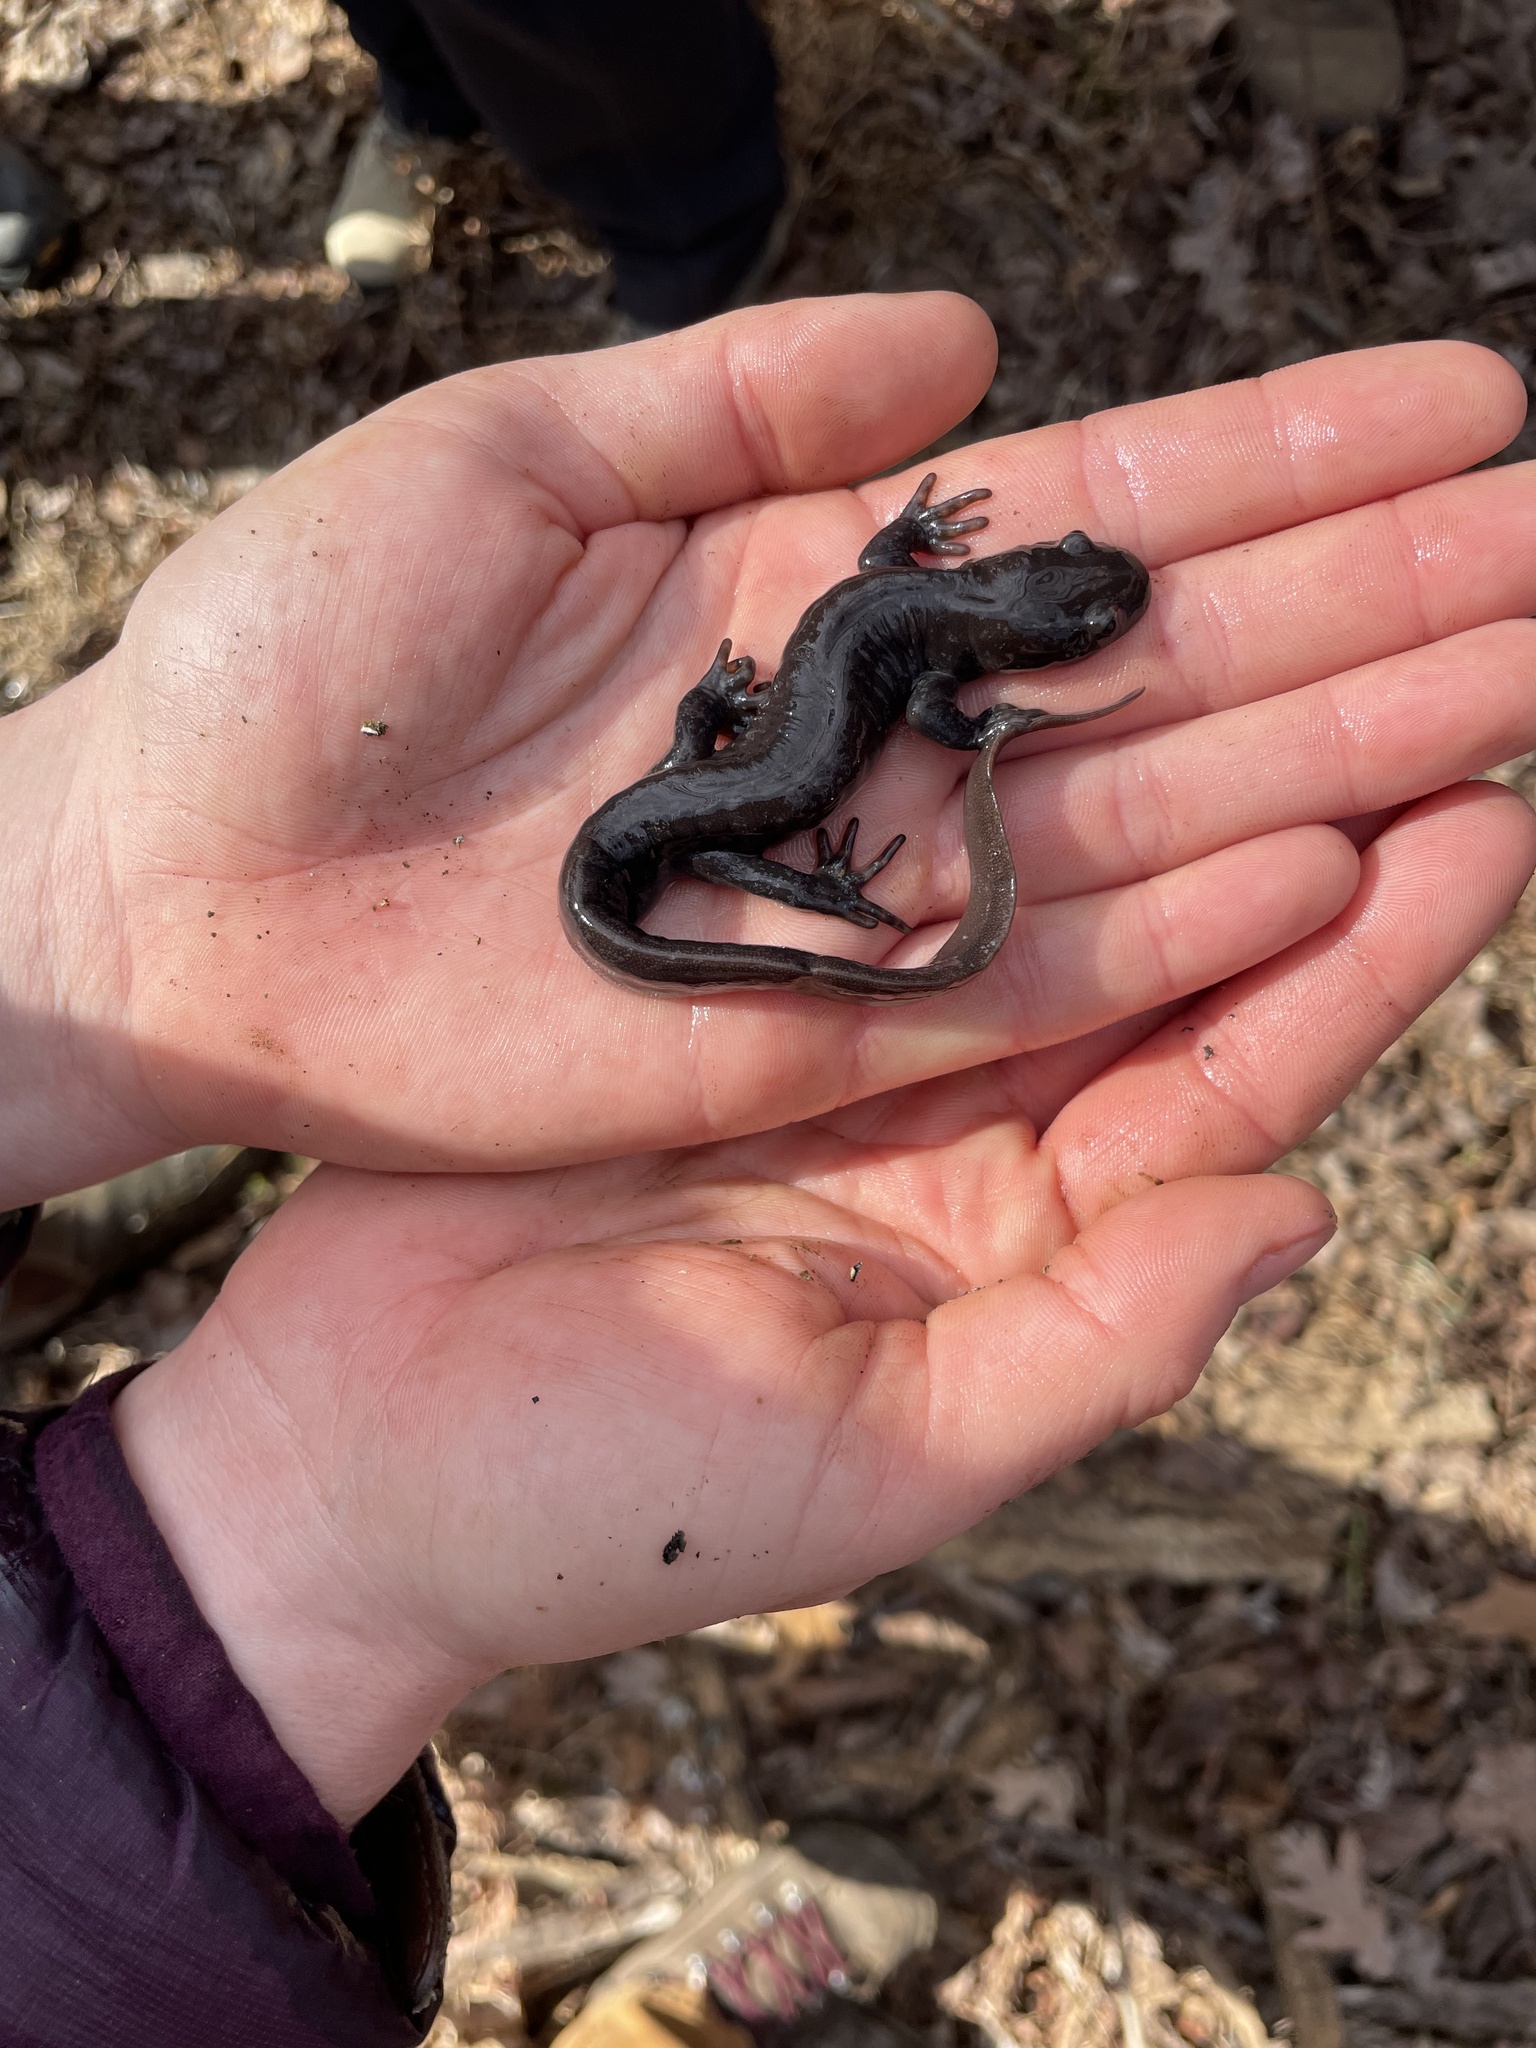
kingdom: Animalia
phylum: Chordata
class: Amphibia
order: Caudata
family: Ambystomatidae
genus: Ambystoma
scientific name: Ambystoma jeffersonianum
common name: Jefferson salamander
